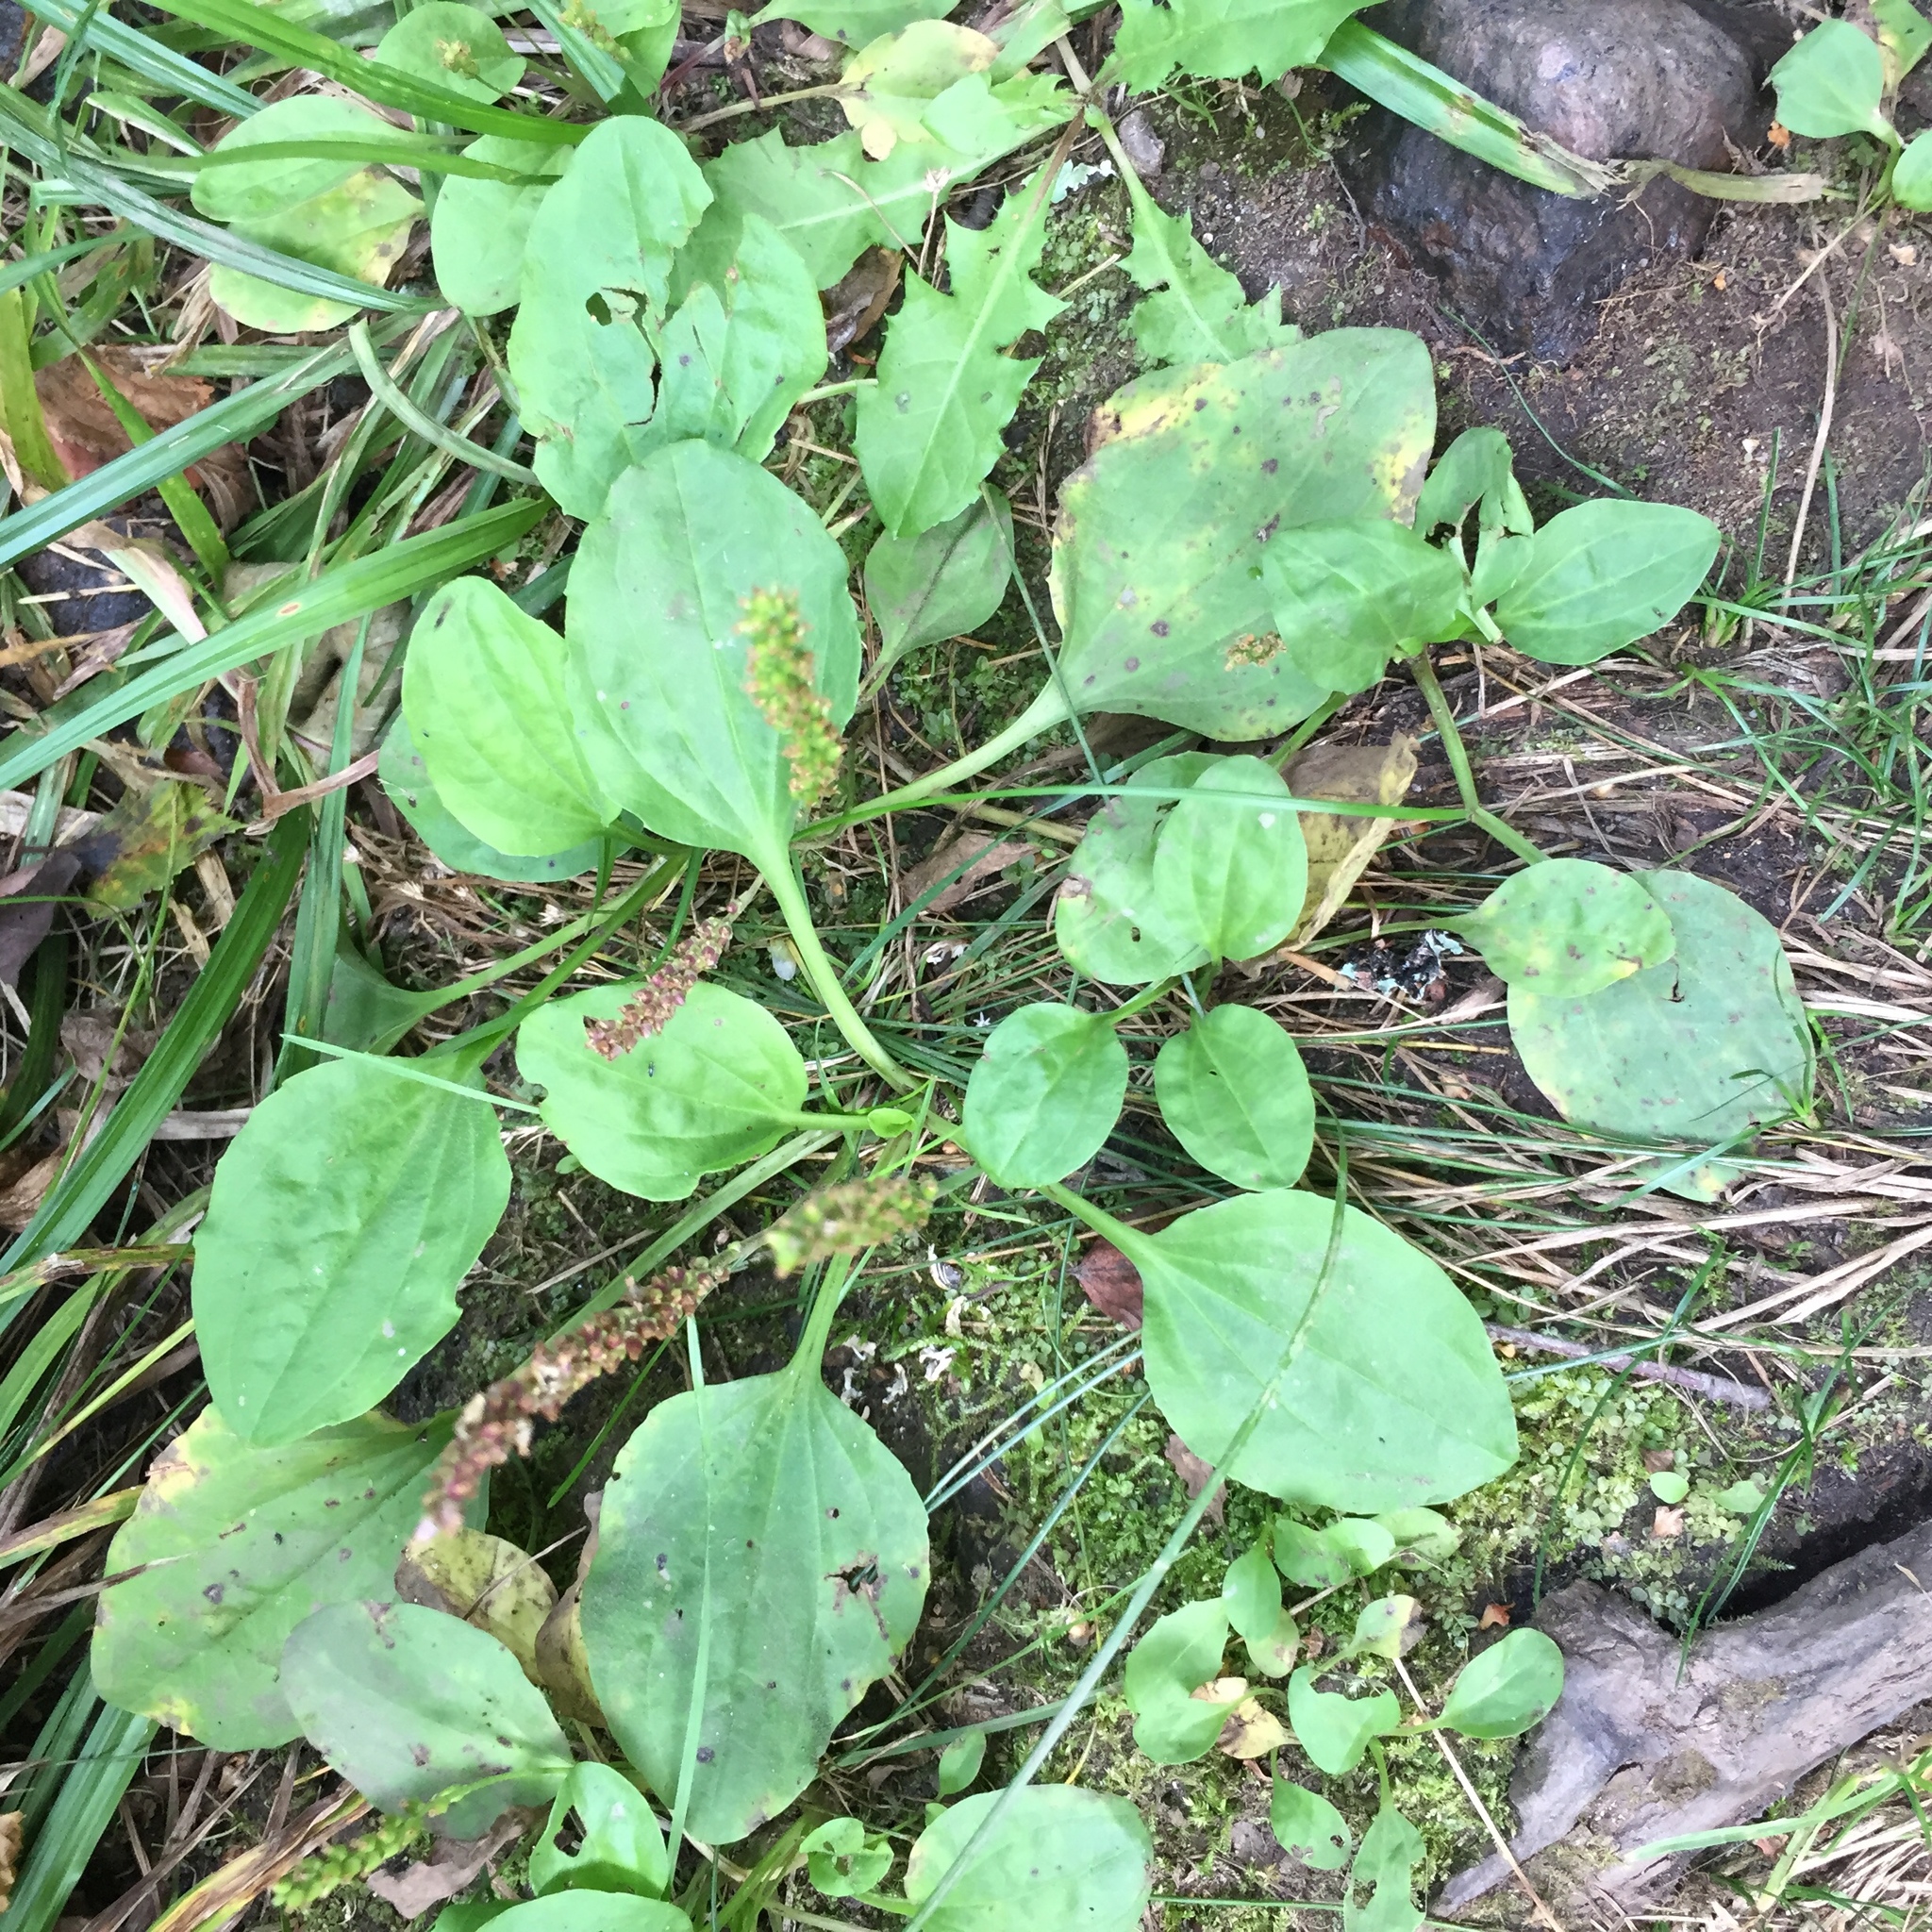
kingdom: Plantae
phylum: Tracheophyta
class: Magnoliopsida
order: Lamiales
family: Plantaginaceae
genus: Plantago
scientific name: Plantago major
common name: Common plantain
